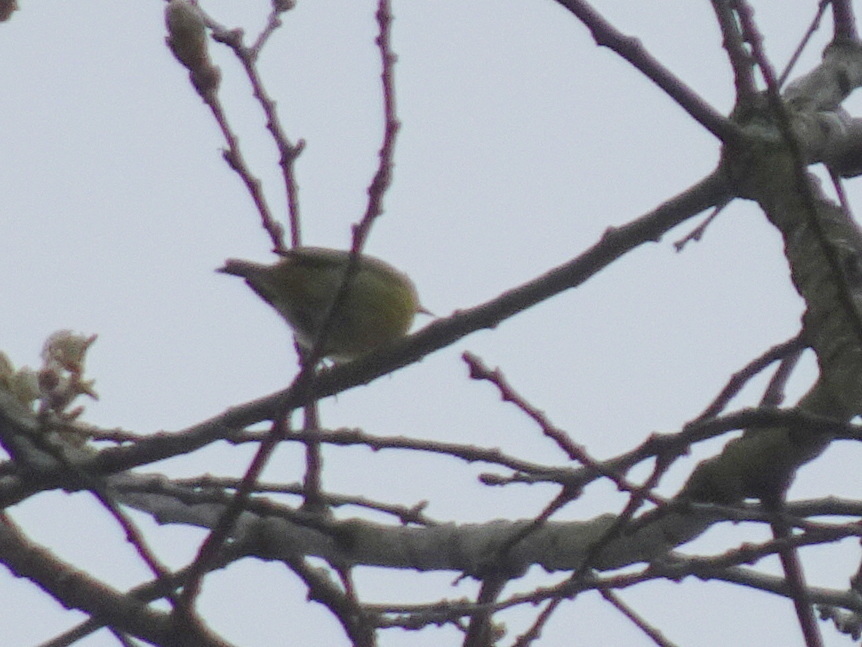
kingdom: Animalia
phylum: Chordata
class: Aves
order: Passeriformes
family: Parulidae
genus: Leiothlypis
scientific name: Leiothlypis ruficapilla
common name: Nashville warbler
